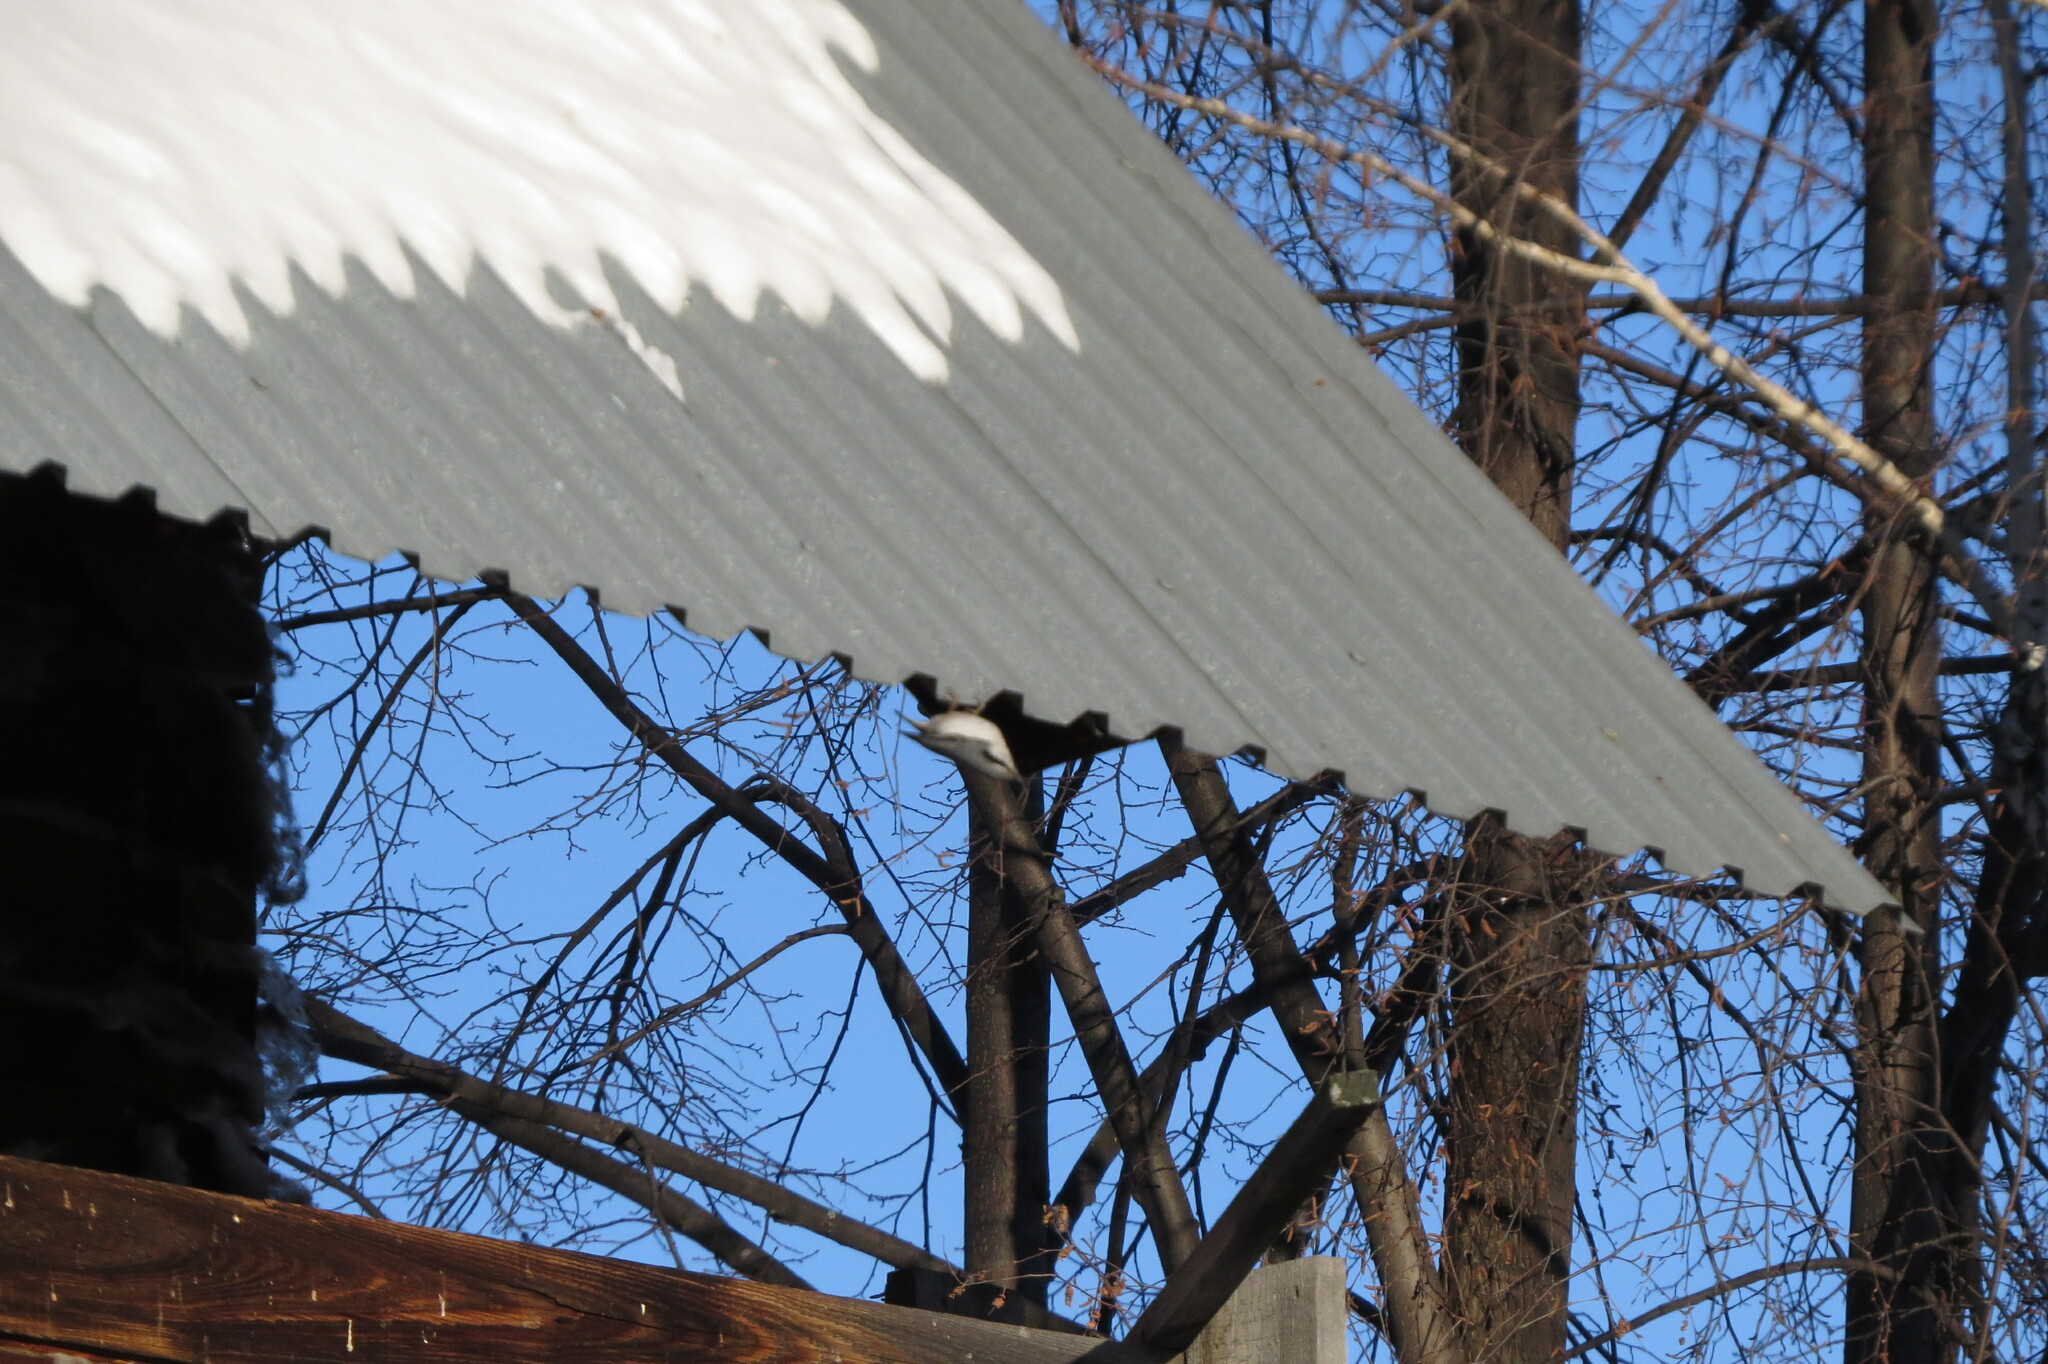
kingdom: Animalia
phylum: Chordata
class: Aves
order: Passeriformes
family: Sittidae
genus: Sitta
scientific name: Sitta europaea
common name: Eurasian nuthatch
